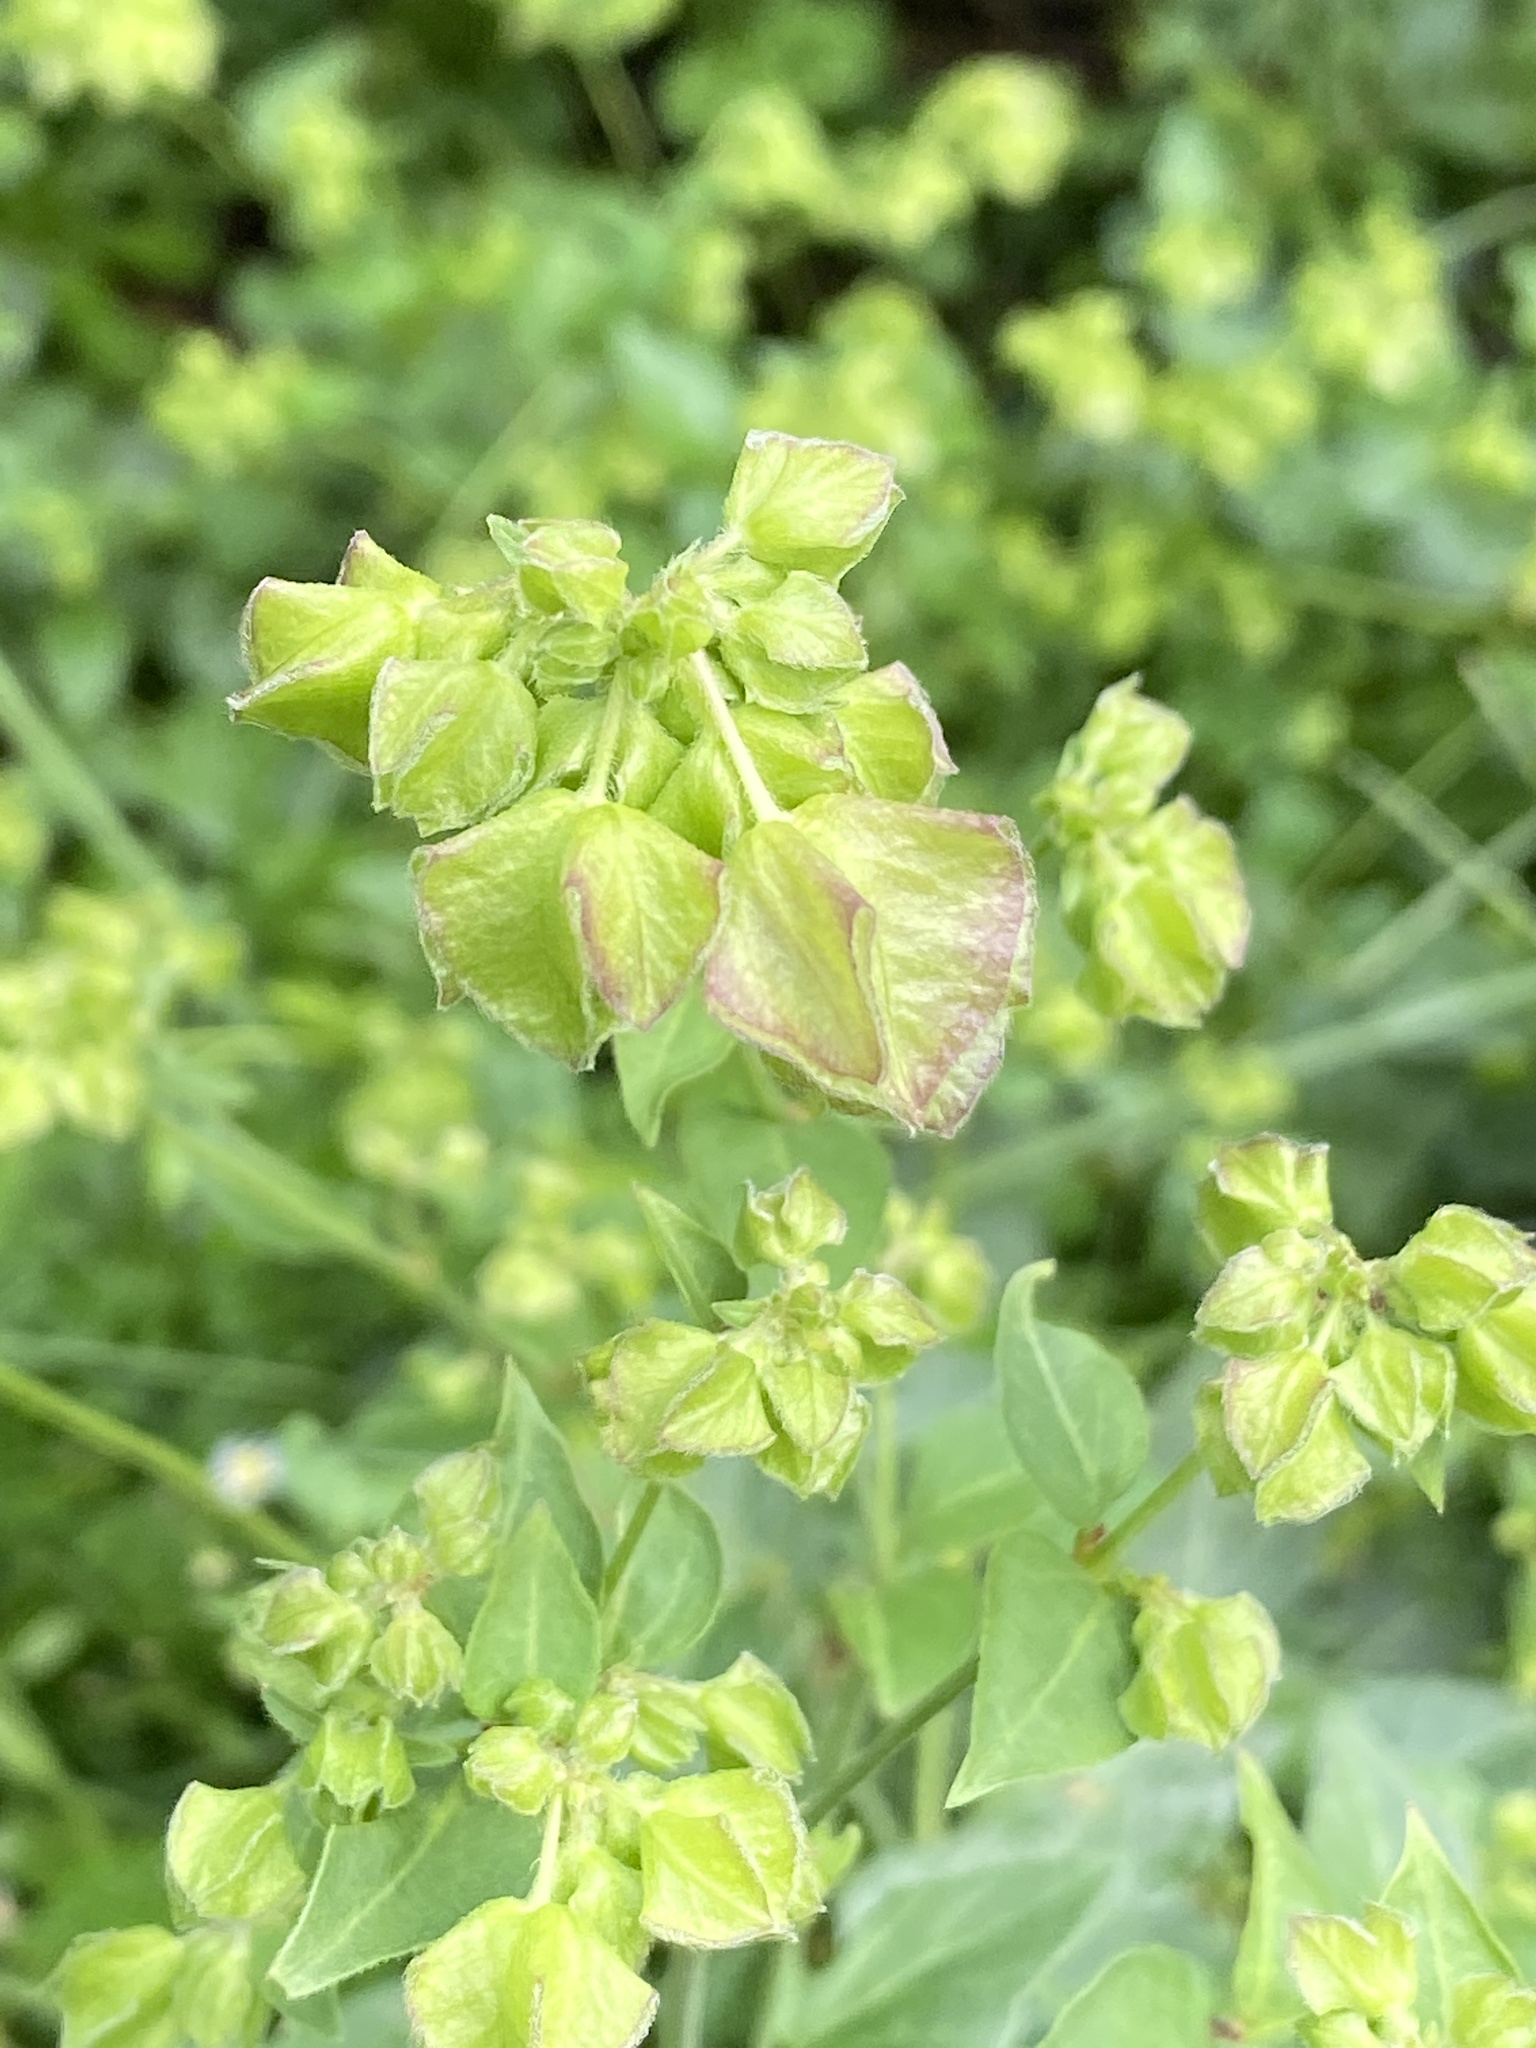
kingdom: Plantae
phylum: Tracheophyta
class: Magnoliopsida
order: Caryophyllales
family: Nyctaginaceae
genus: Mirabilis
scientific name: Mirabilis nyctaginea
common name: Umbrella wort
